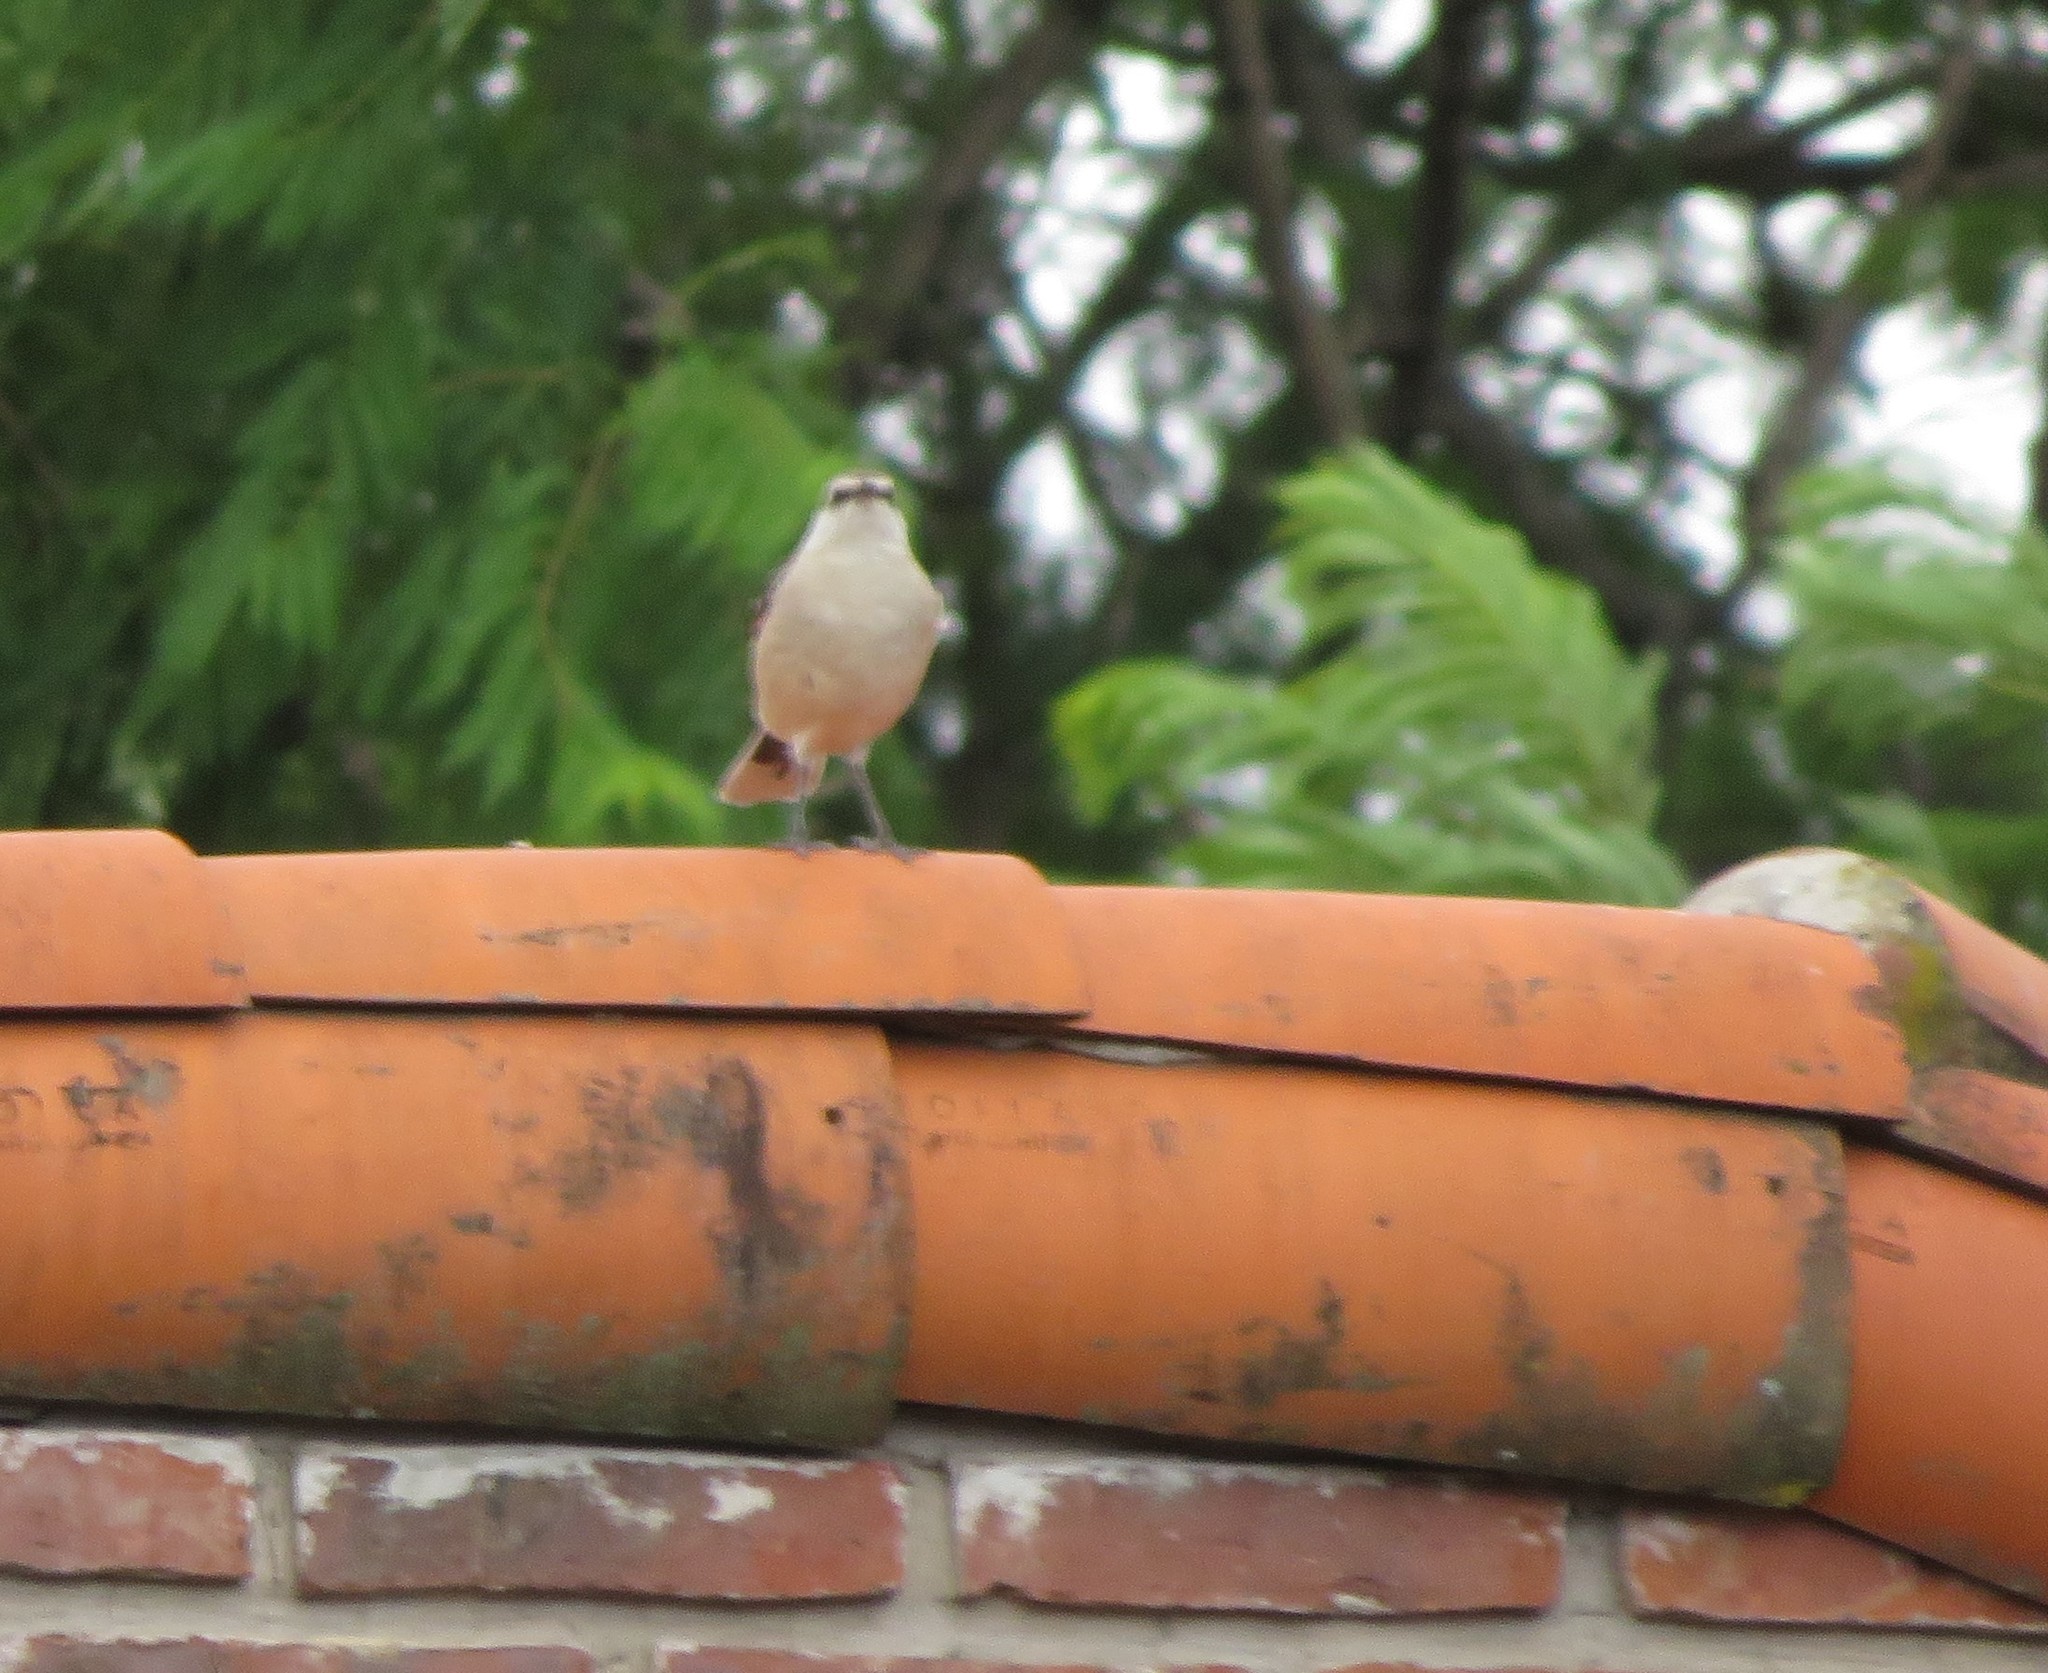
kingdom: Animalia
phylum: Chordata
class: Aves
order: Passeriformes
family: Mimidae
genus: Mimus
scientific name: Mimus saturninus
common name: Chalk-browed mockingbird
